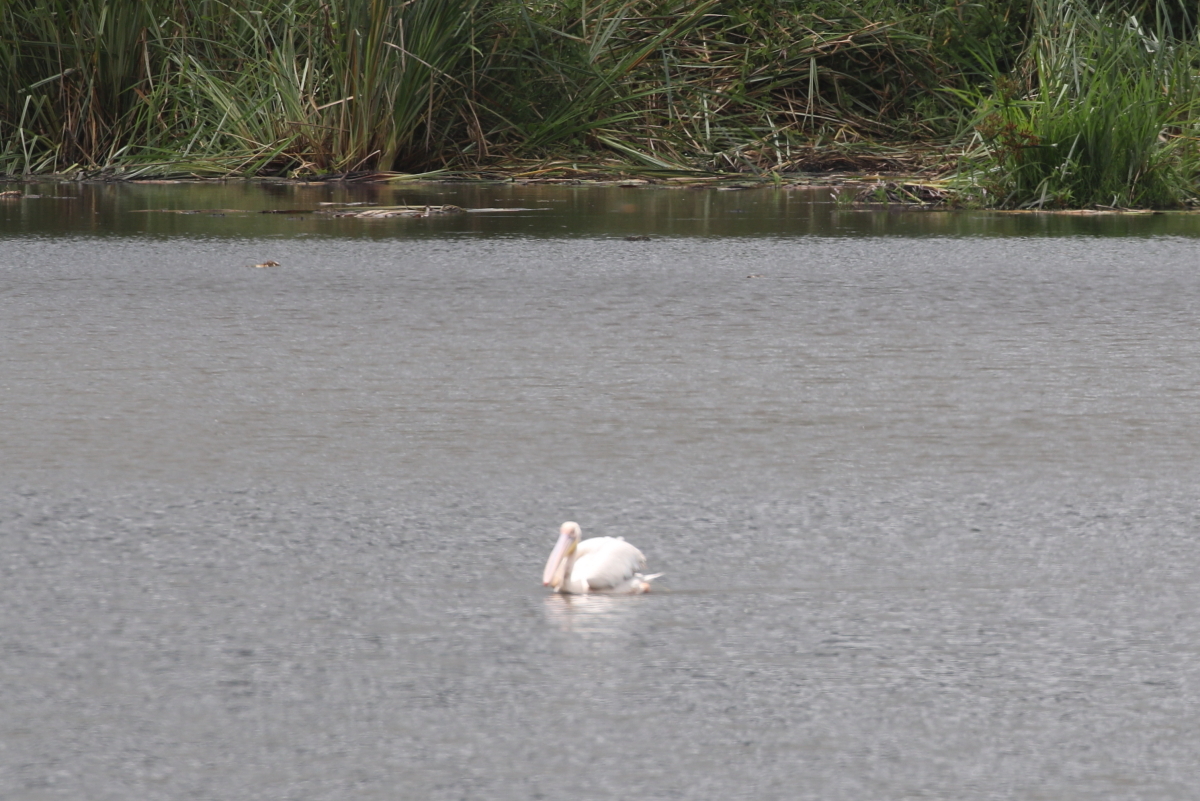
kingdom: Animalia
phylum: Chordata
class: Aves
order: Pelecaniformes
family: Pelecanidae
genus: Pelecanus
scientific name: Pelecanus onocrotalus
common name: Great white pelican
